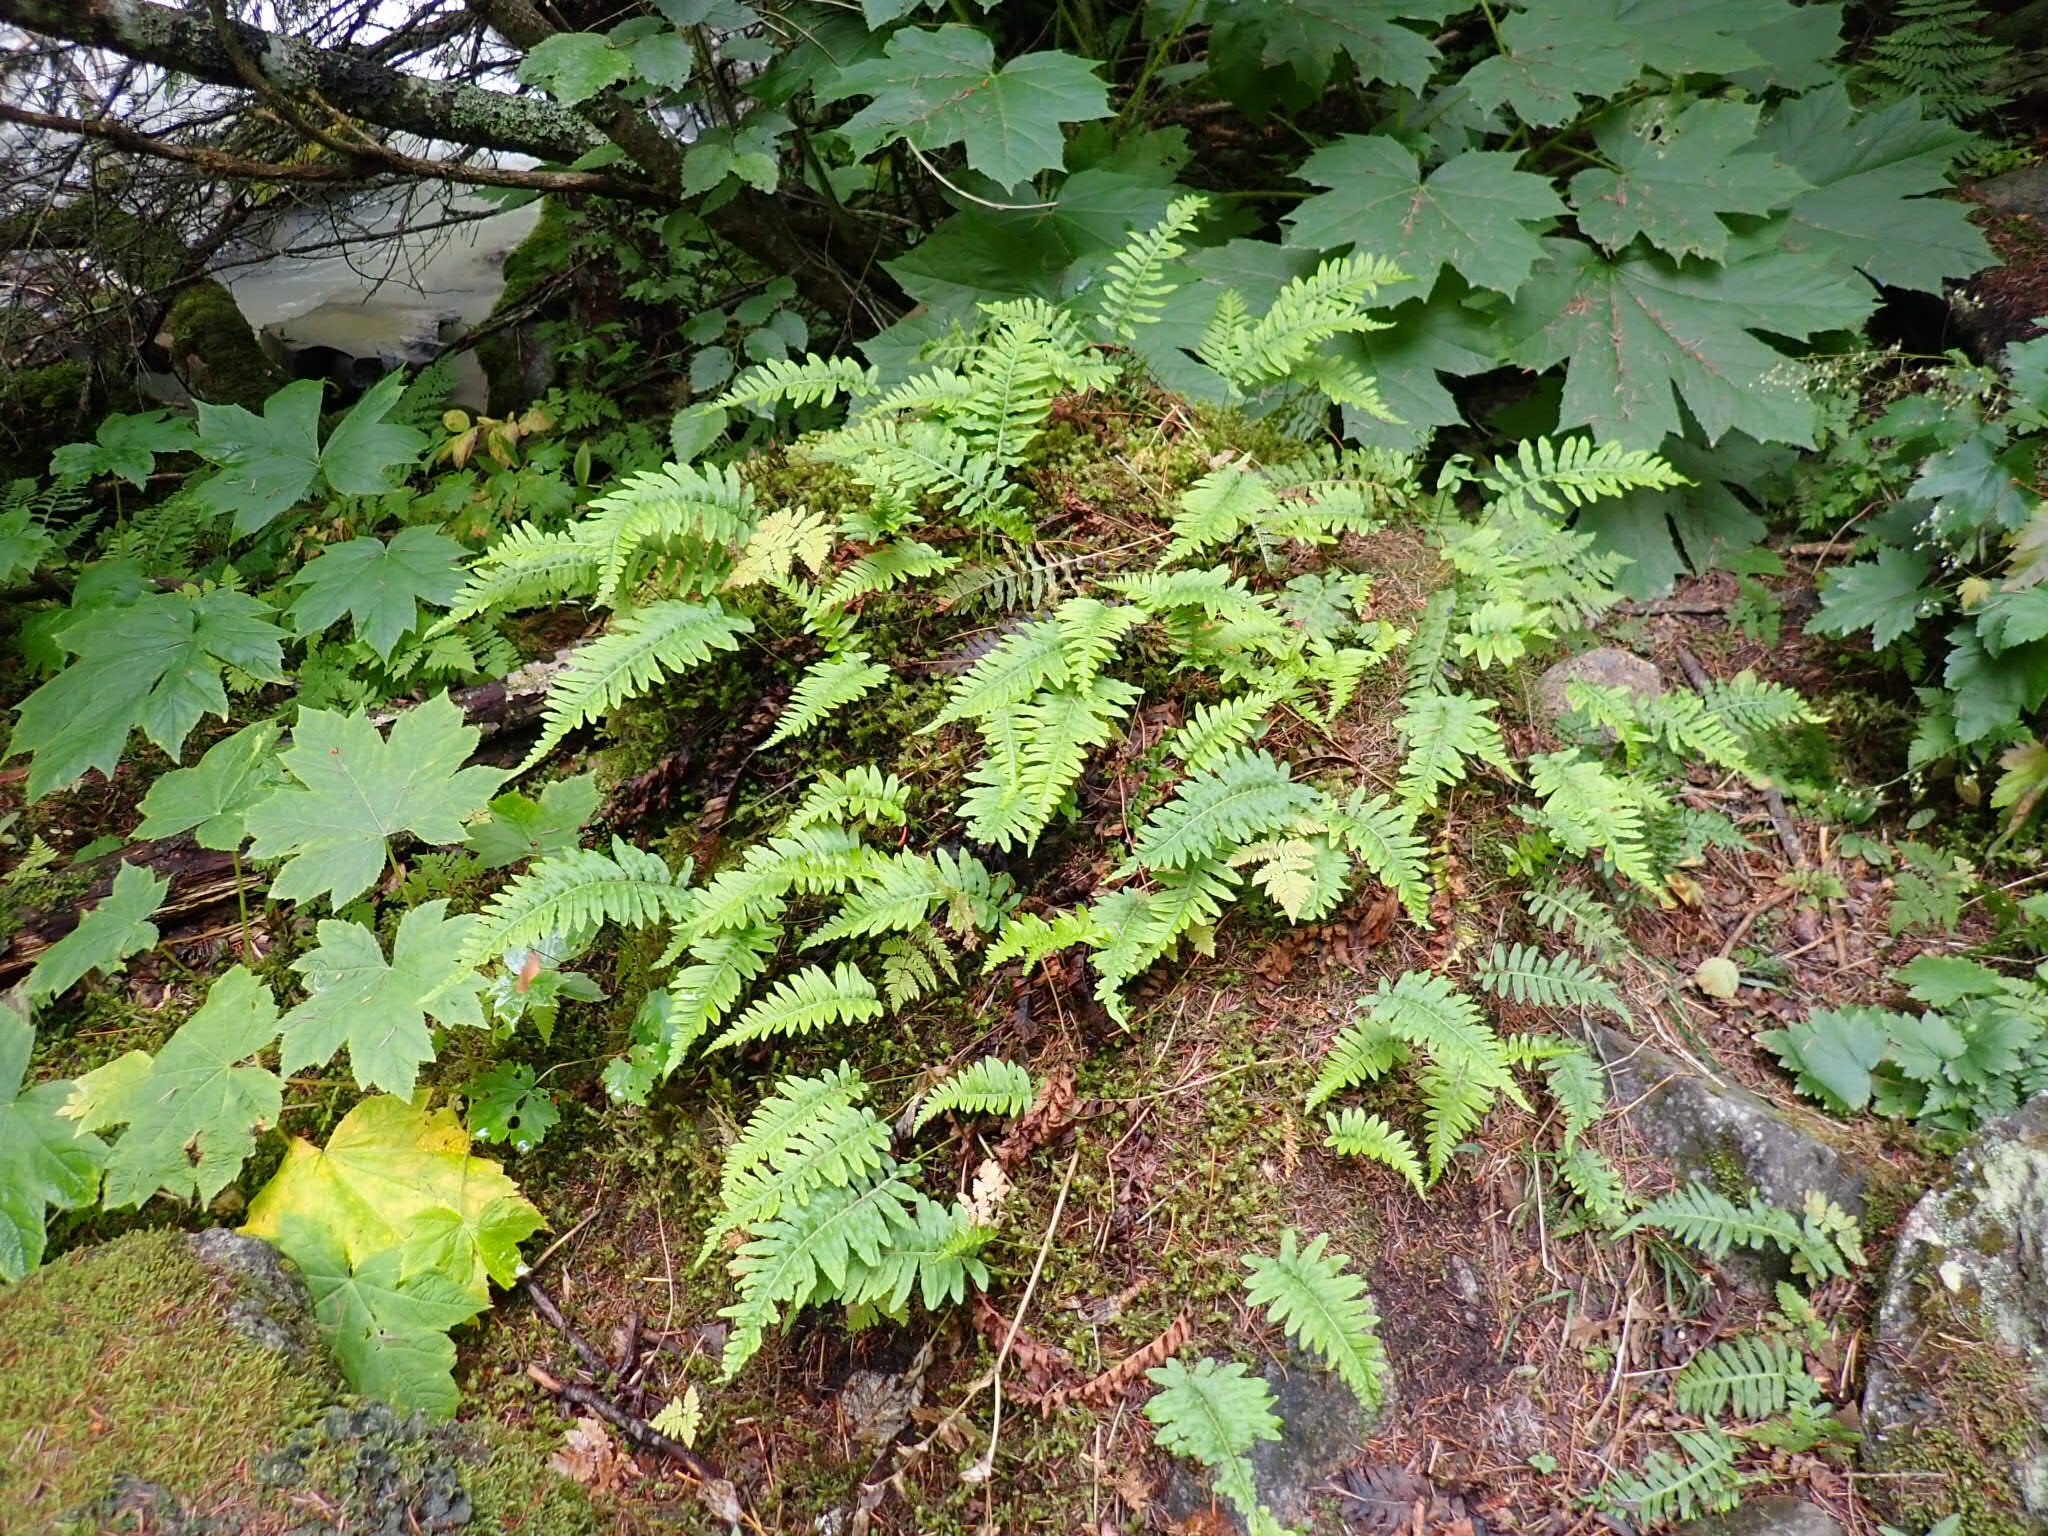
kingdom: Plantae
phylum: Tracheophyta
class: Polypodiopsida
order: Polypodiales
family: Polypodiaceae
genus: Polypodium
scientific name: Polypodium glycyrrhiza
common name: Licorice fern
